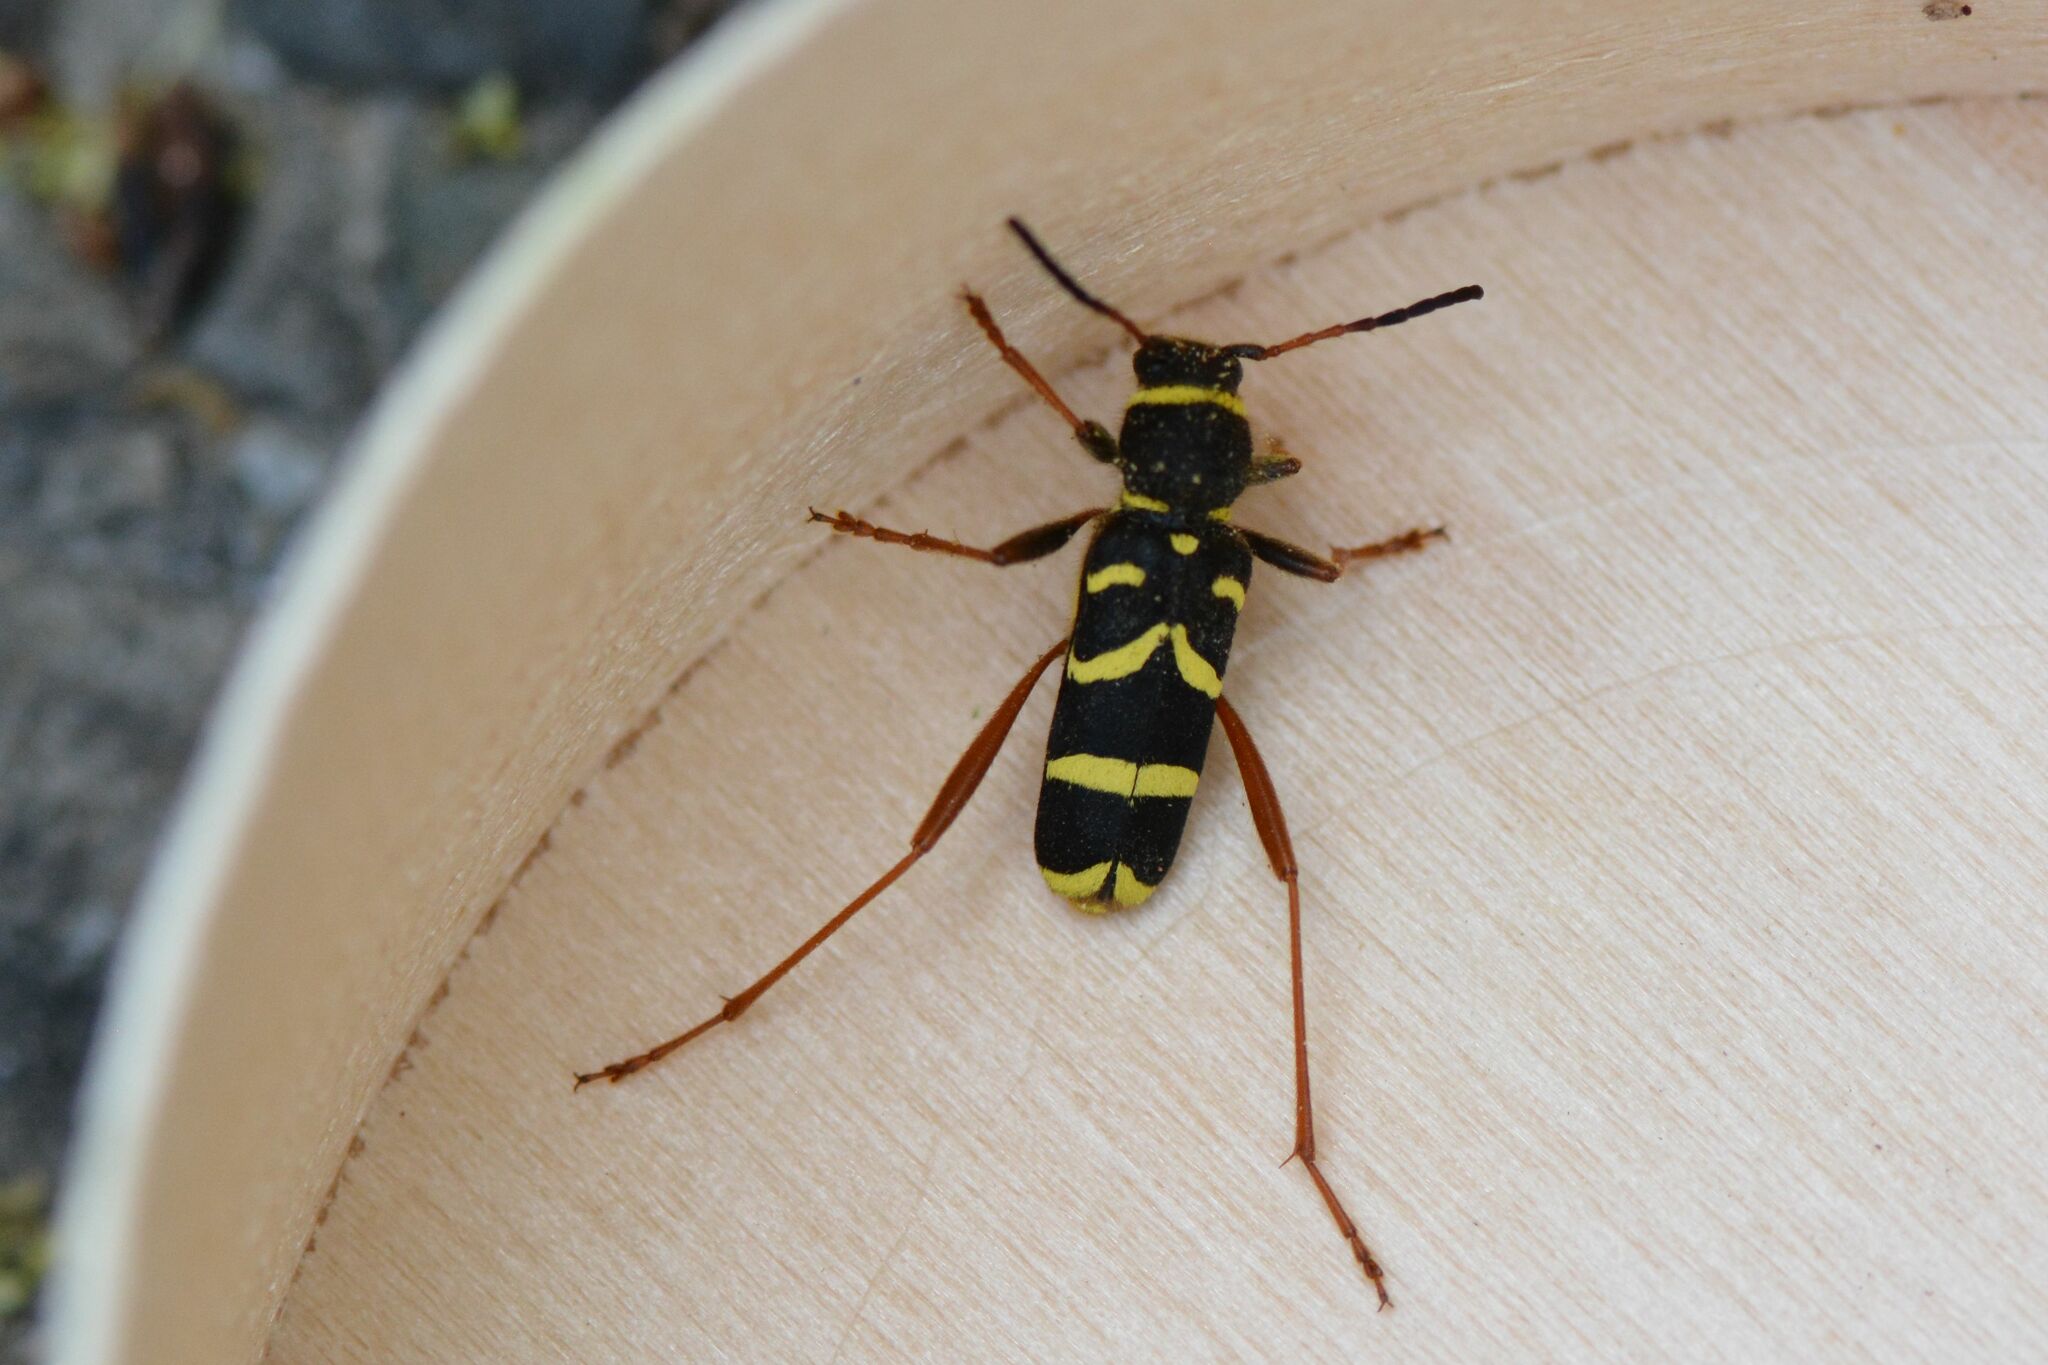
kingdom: Animalia
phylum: Arthropoda
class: Insecta
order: Coleoptera
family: Cerambycidae
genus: Clytus
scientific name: Clytus arietis
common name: Wasp beetle
